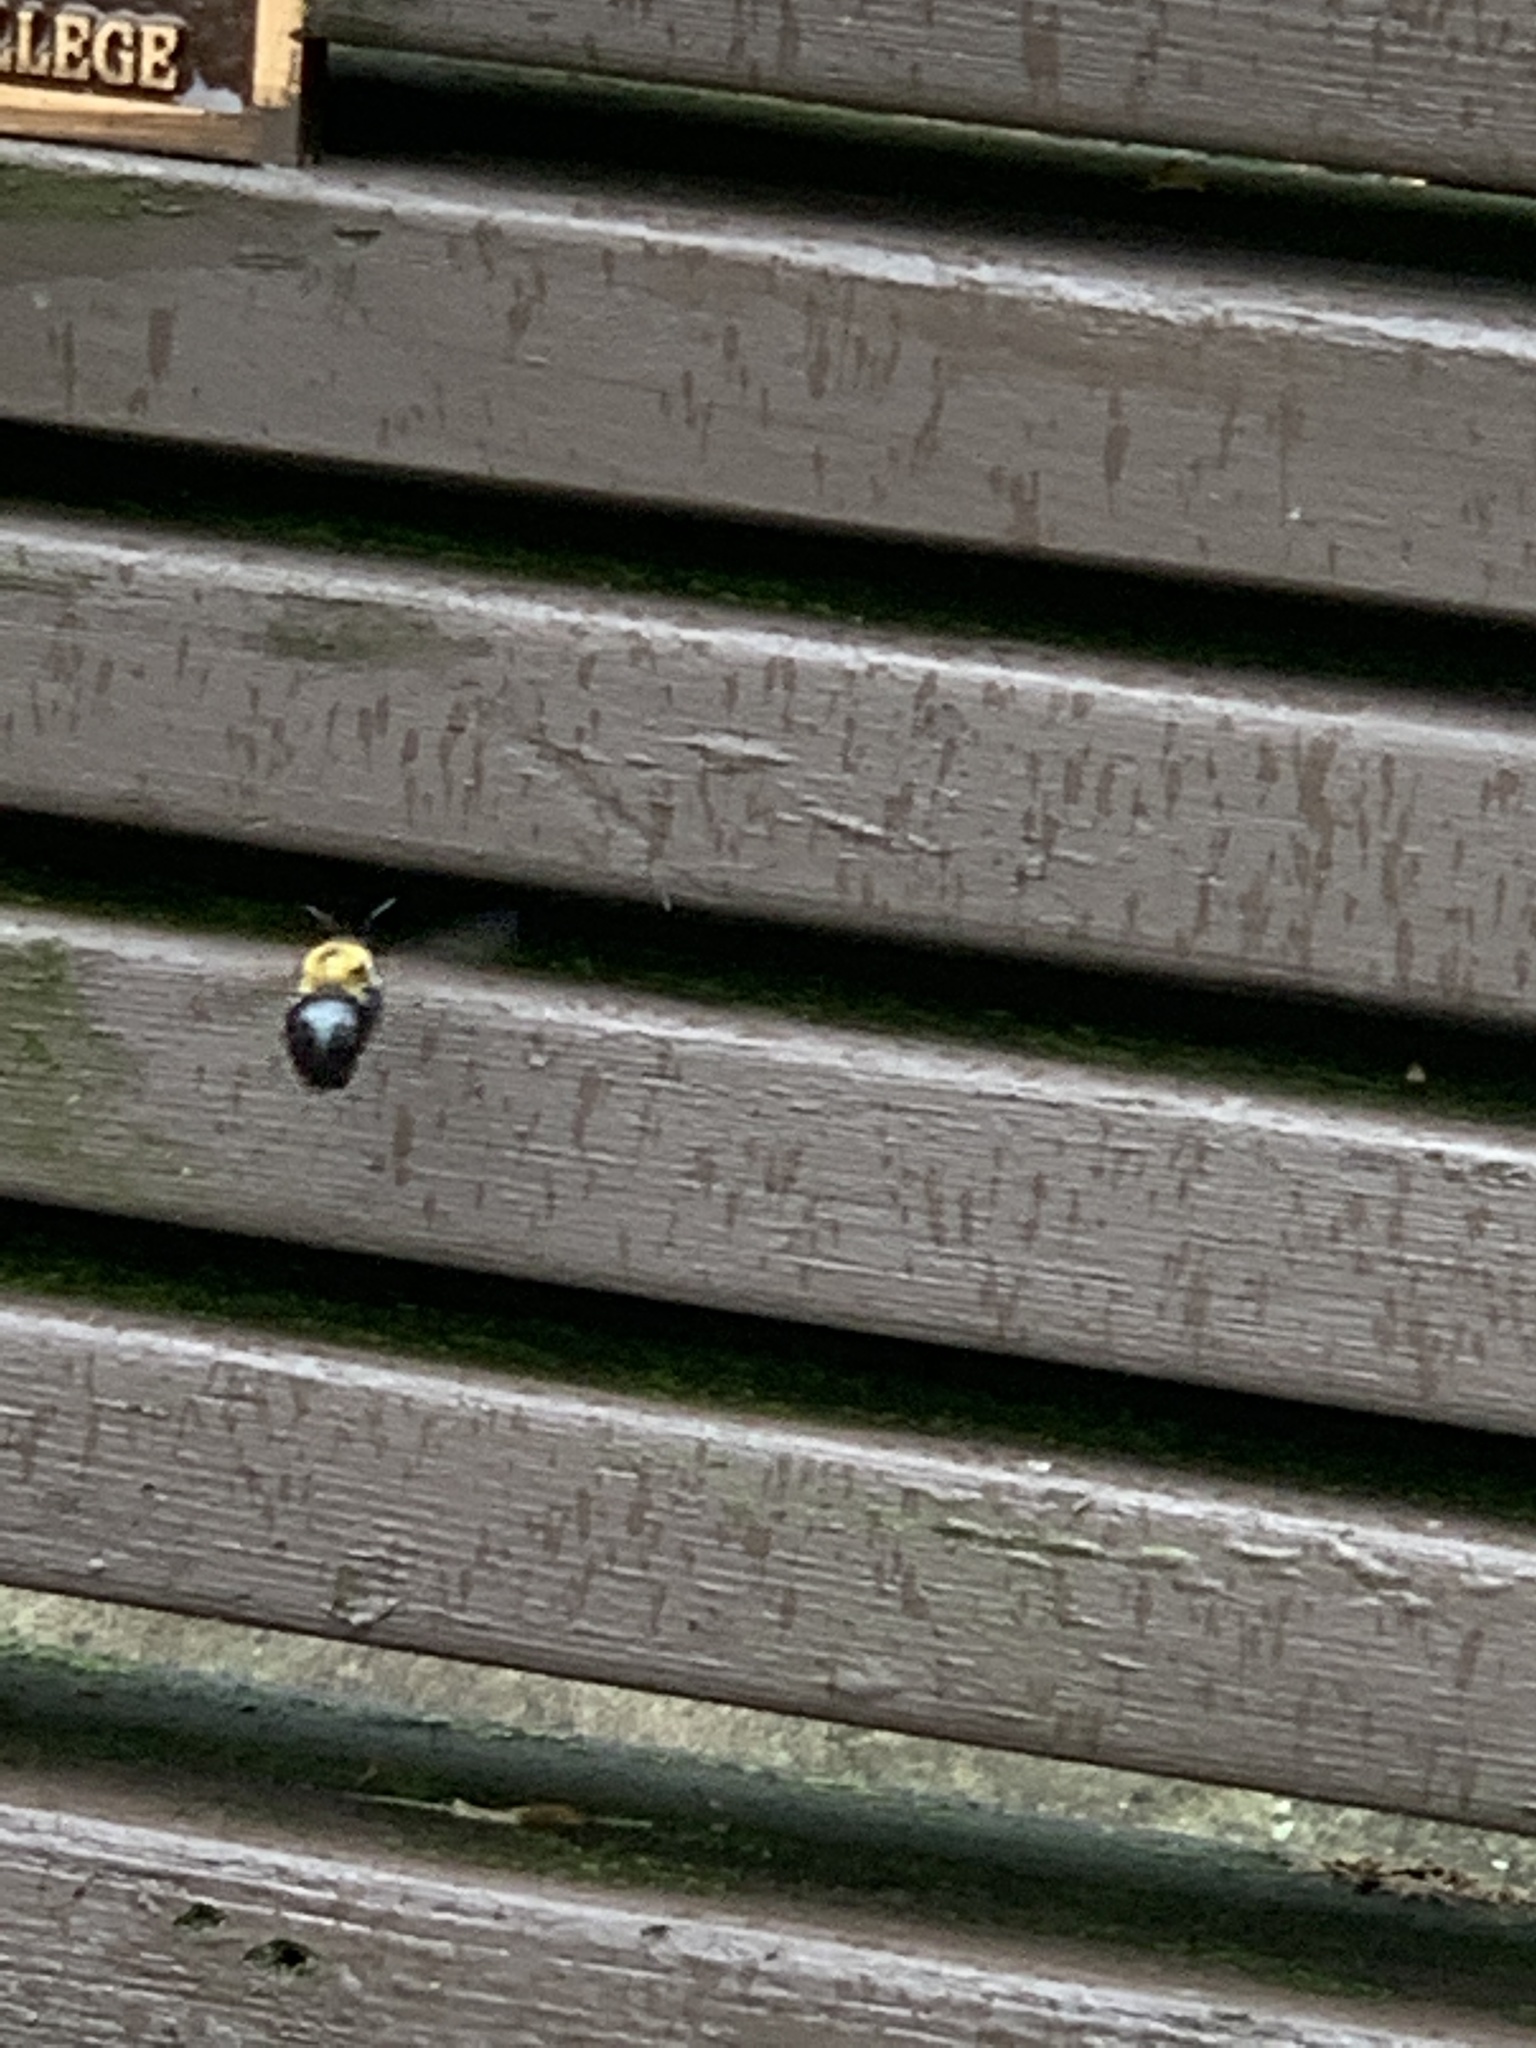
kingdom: Animalia
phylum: Arthropoda
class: Insecta
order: Hymenoptera
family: Apidae
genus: Xylocopa
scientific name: Xylocopa virginica
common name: Carpenter bee
